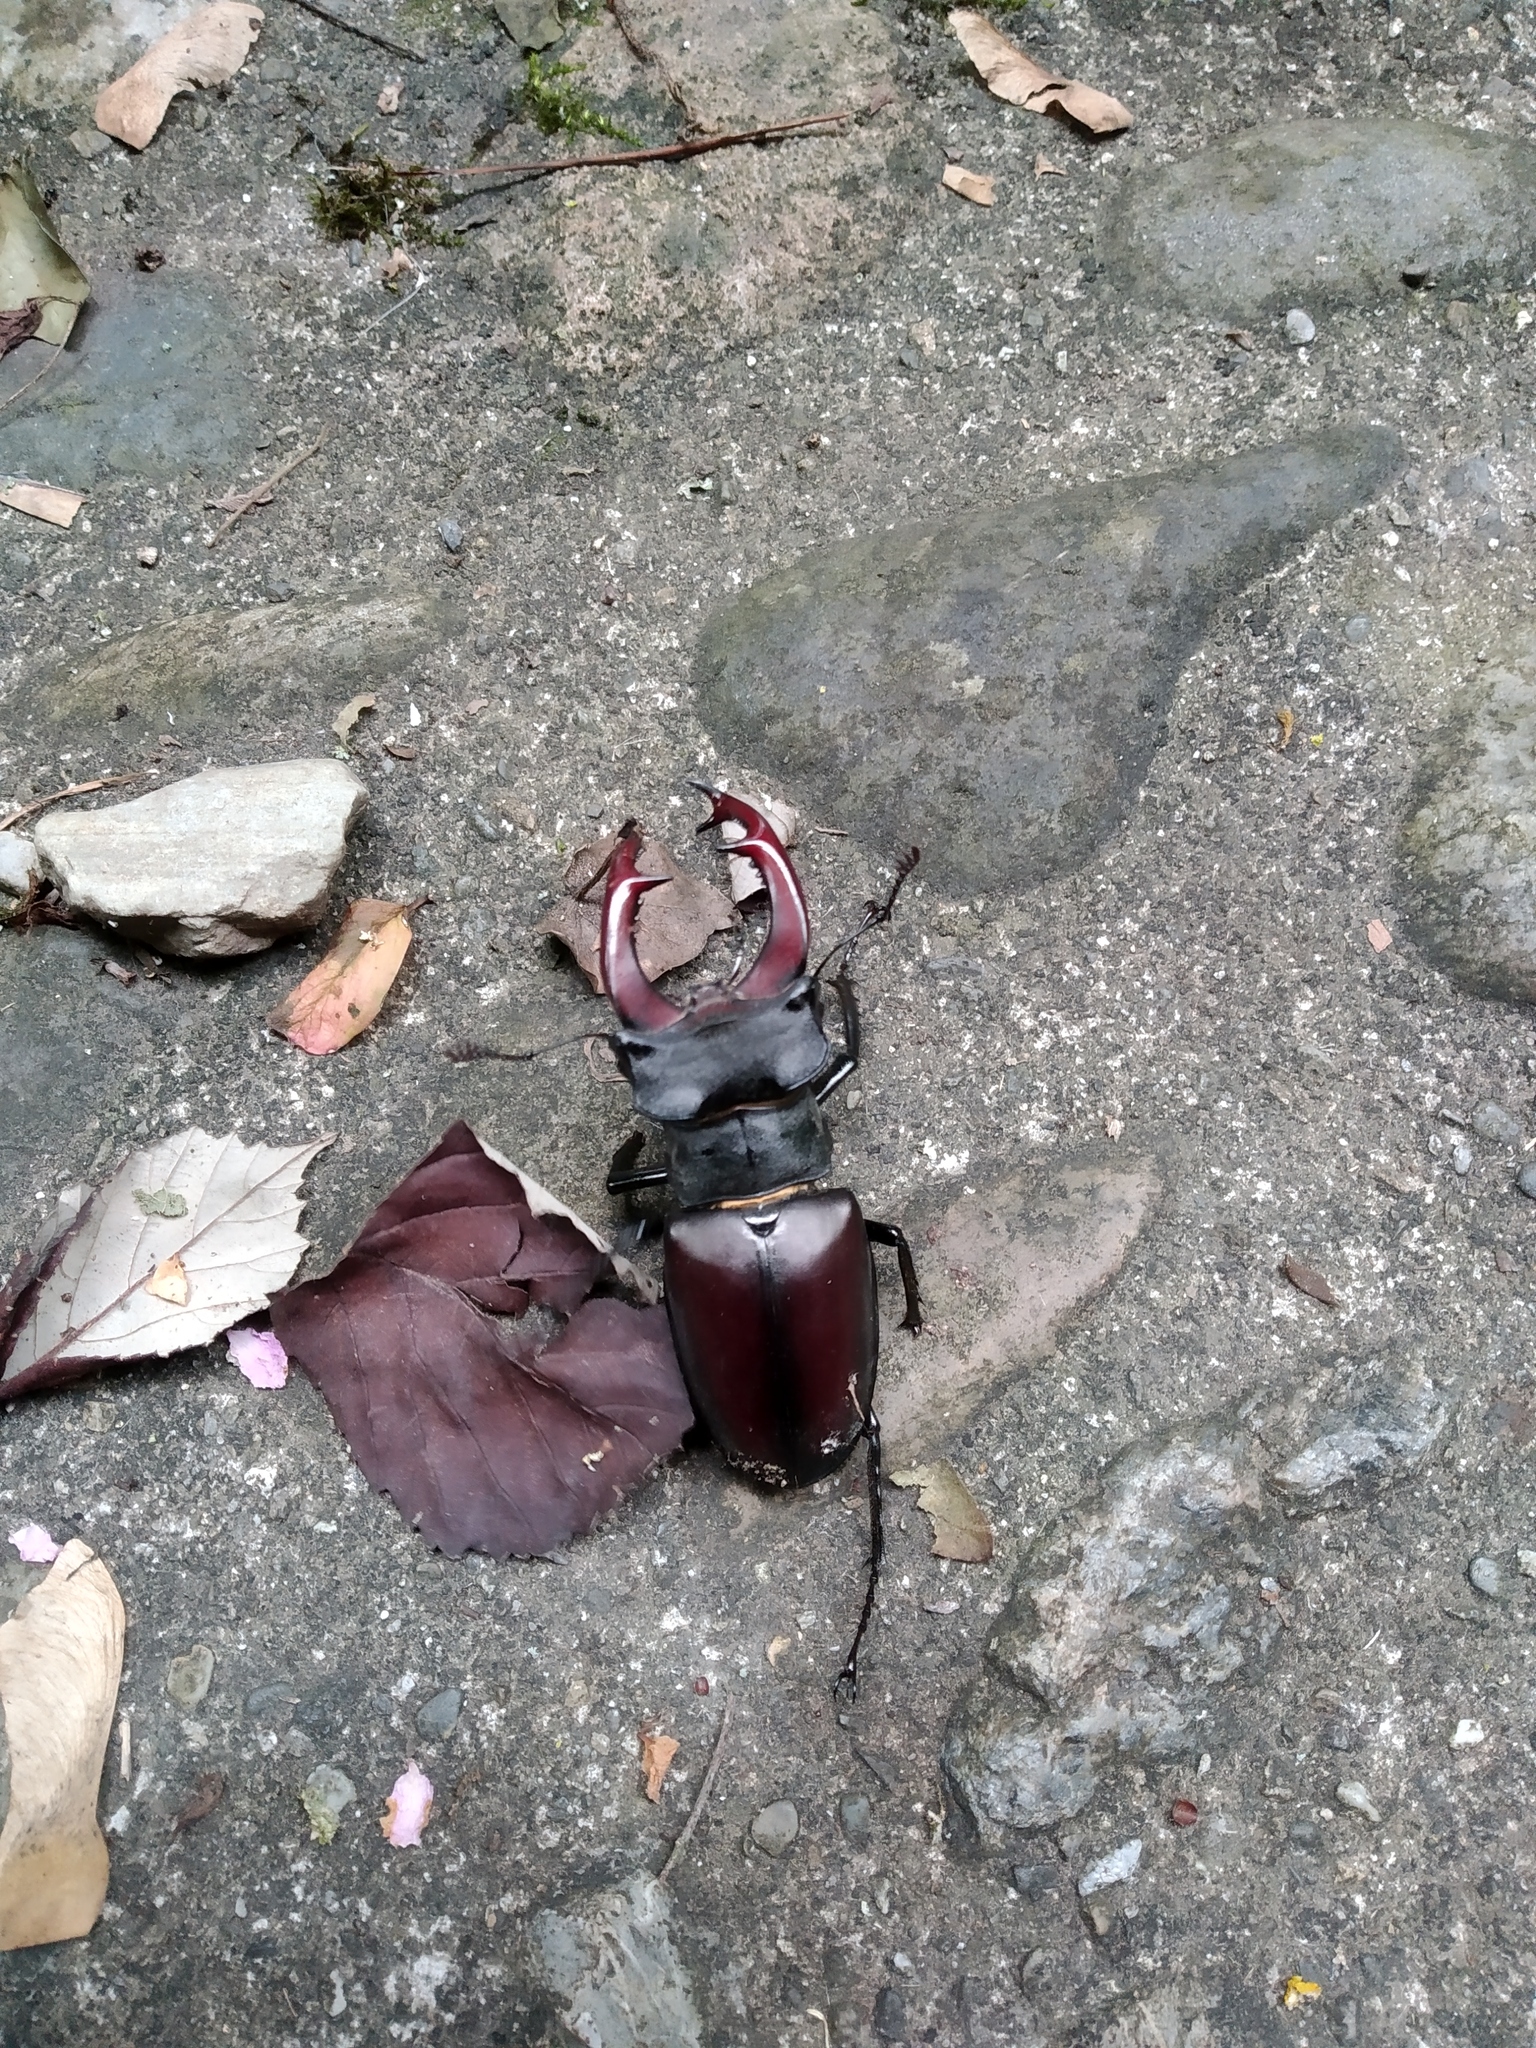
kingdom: Animalia
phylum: Arthropoda
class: Insecta
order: Coleoptera
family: Lucanidae
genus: Lucanus
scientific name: Lucanus cervus
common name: Stag beetle
